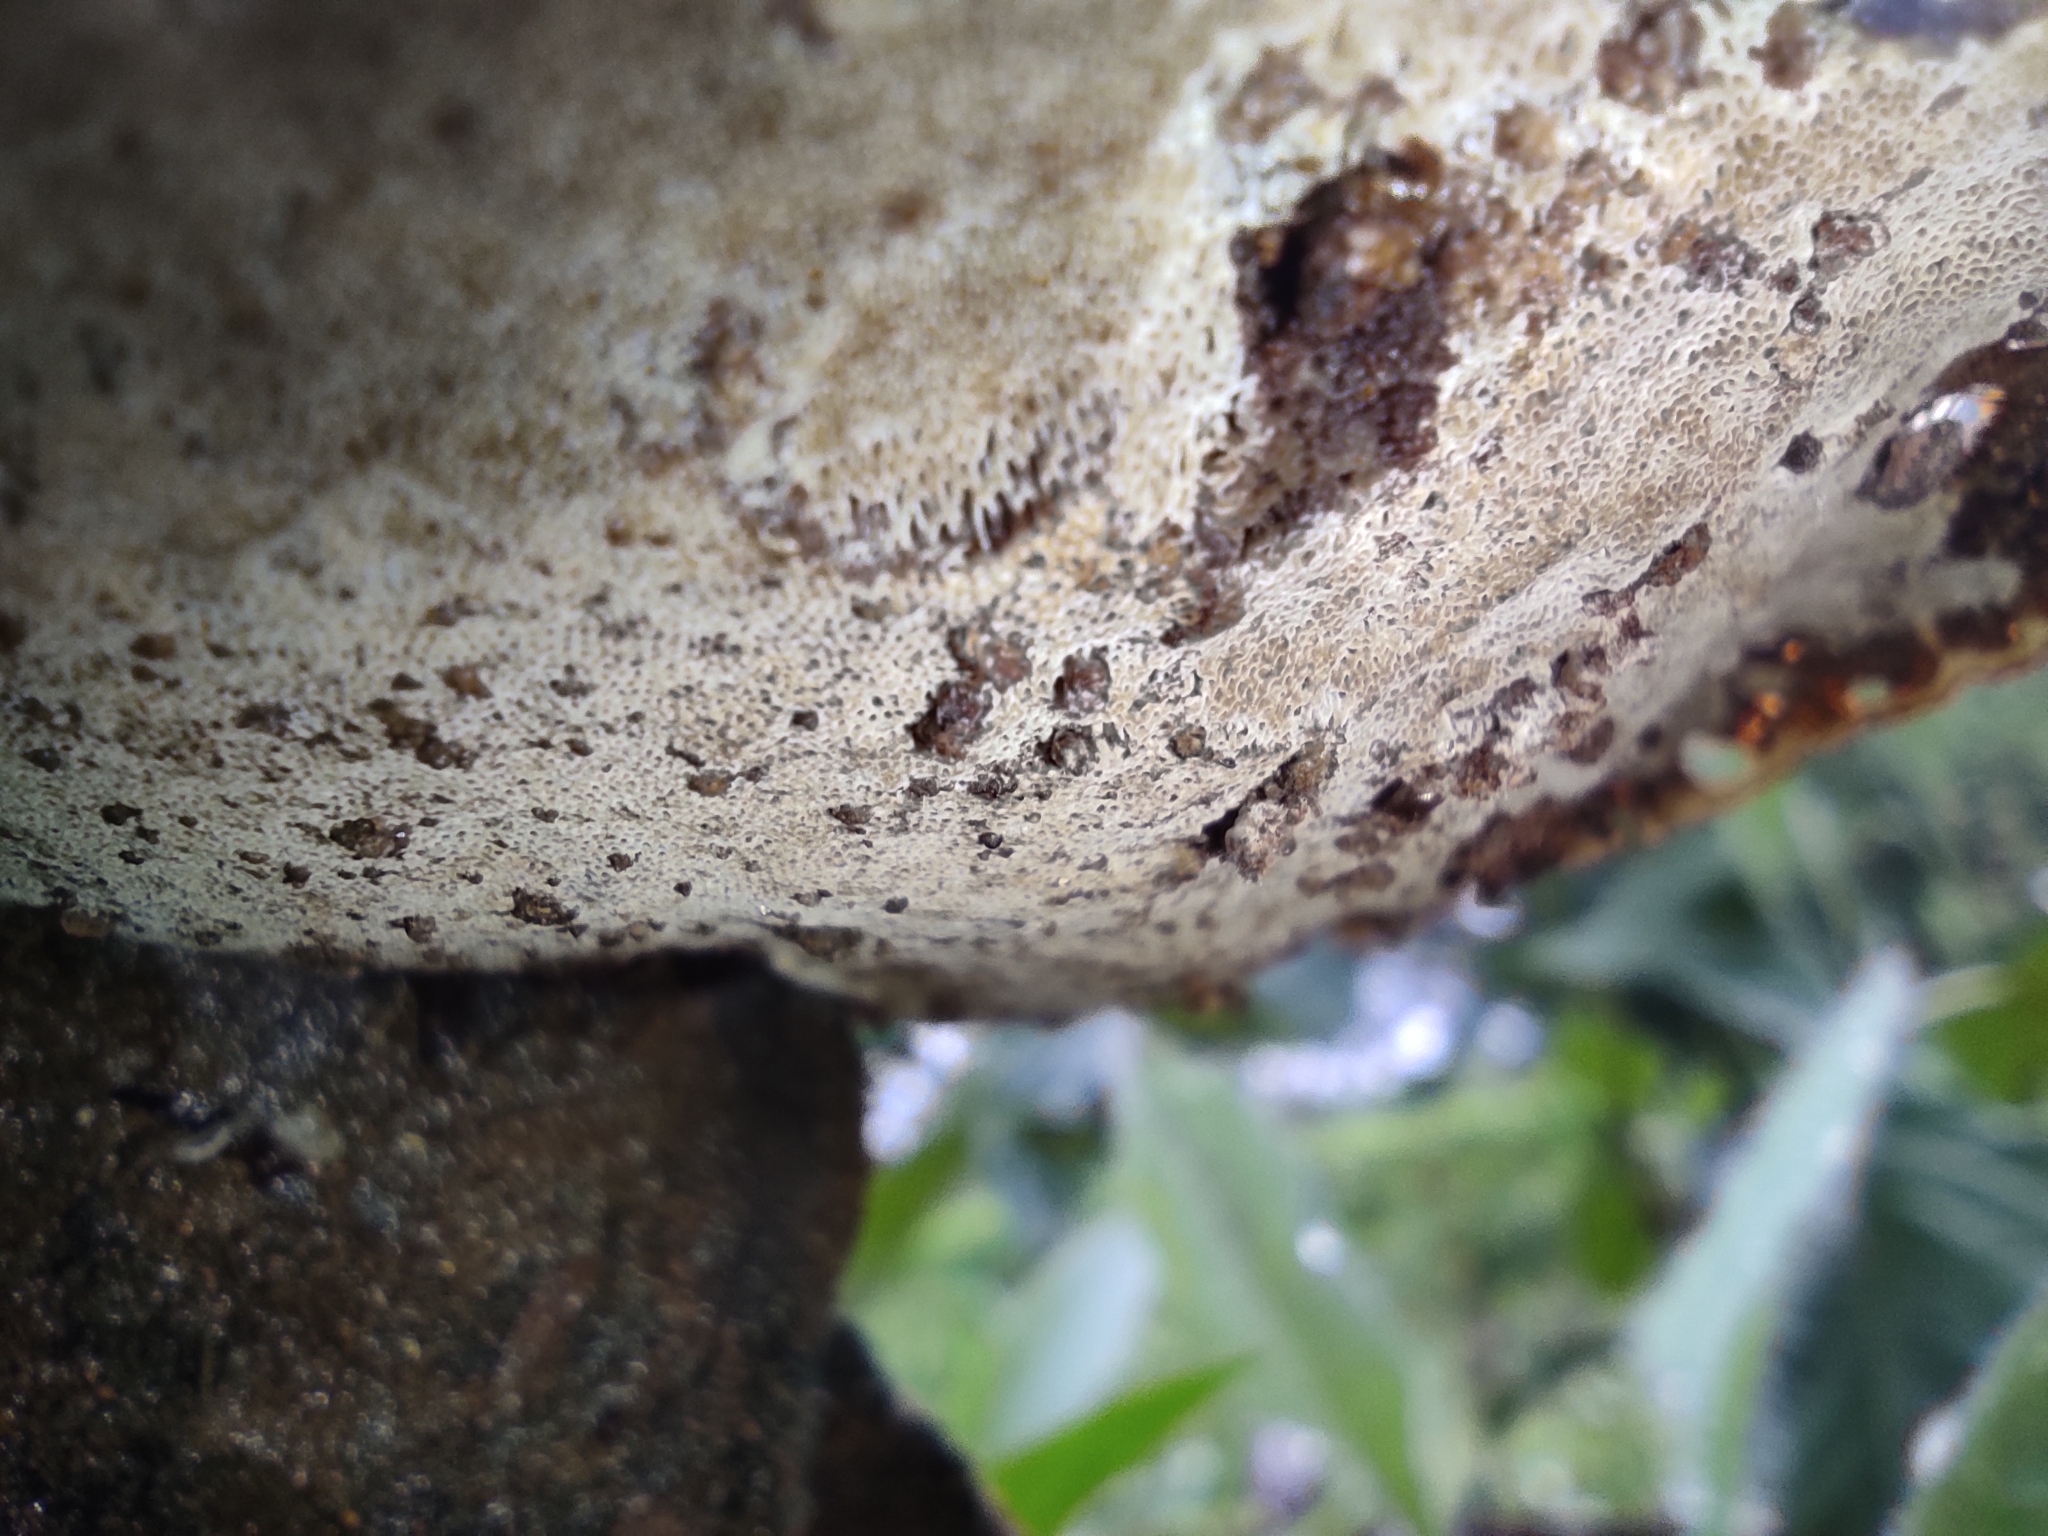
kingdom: Fungi
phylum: Basidiomycota
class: Agaricomycetes
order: Polyporales
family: Cerrenaceae
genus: Cerrena
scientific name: Cerrena hydnoides
